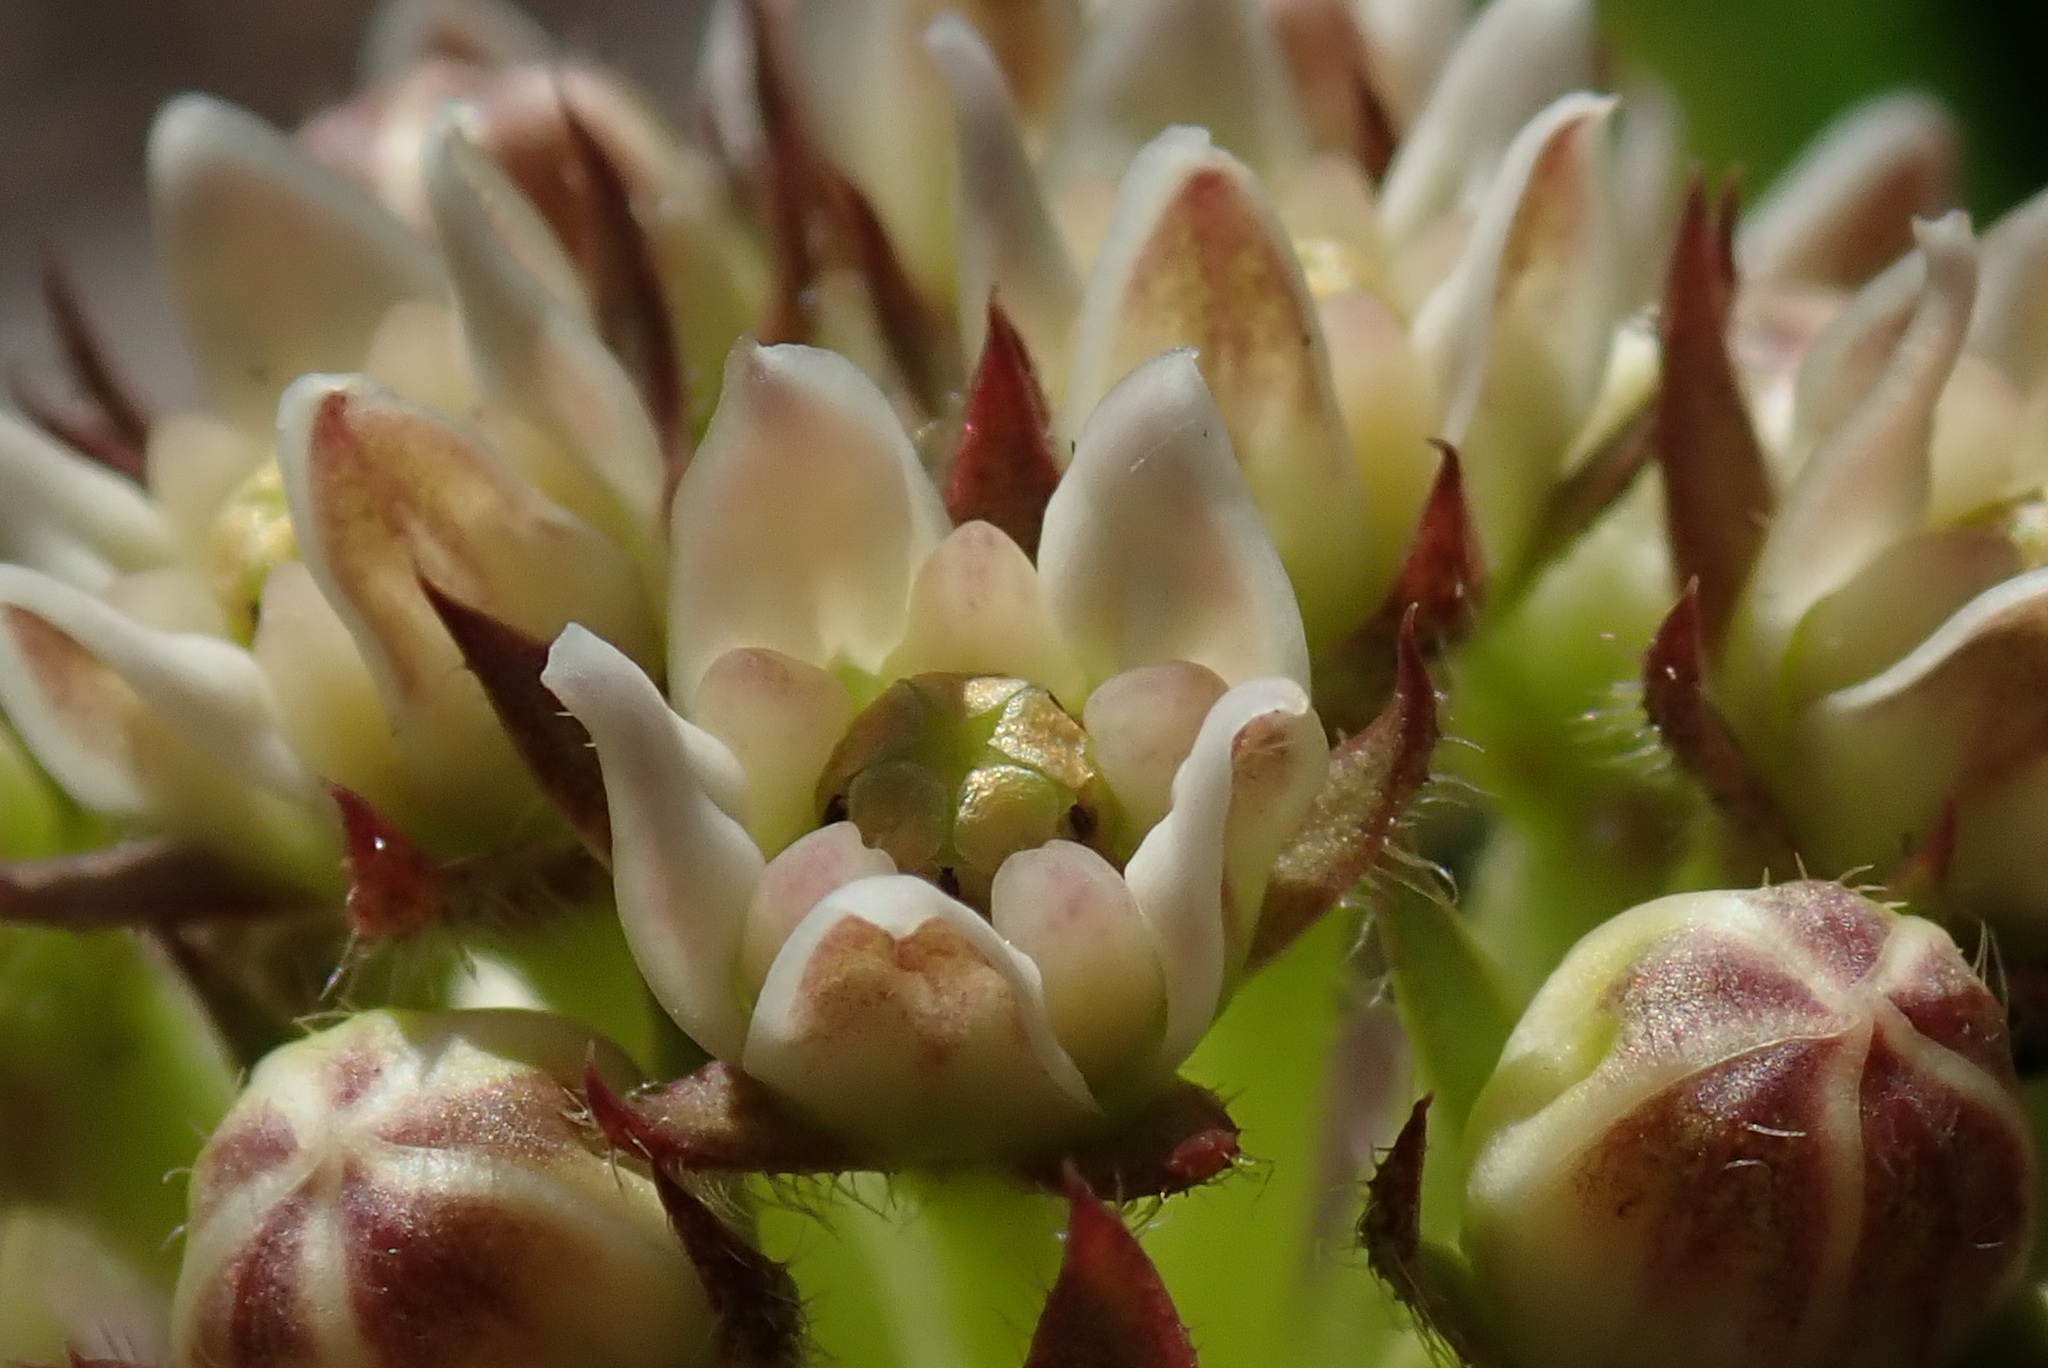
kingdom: Plantae
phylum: Tracheophyta
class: Magnoliopsida
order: Gentianales
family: Apocynaceae
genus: Xysmalobium
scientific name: Xysmalobium acerateoides
